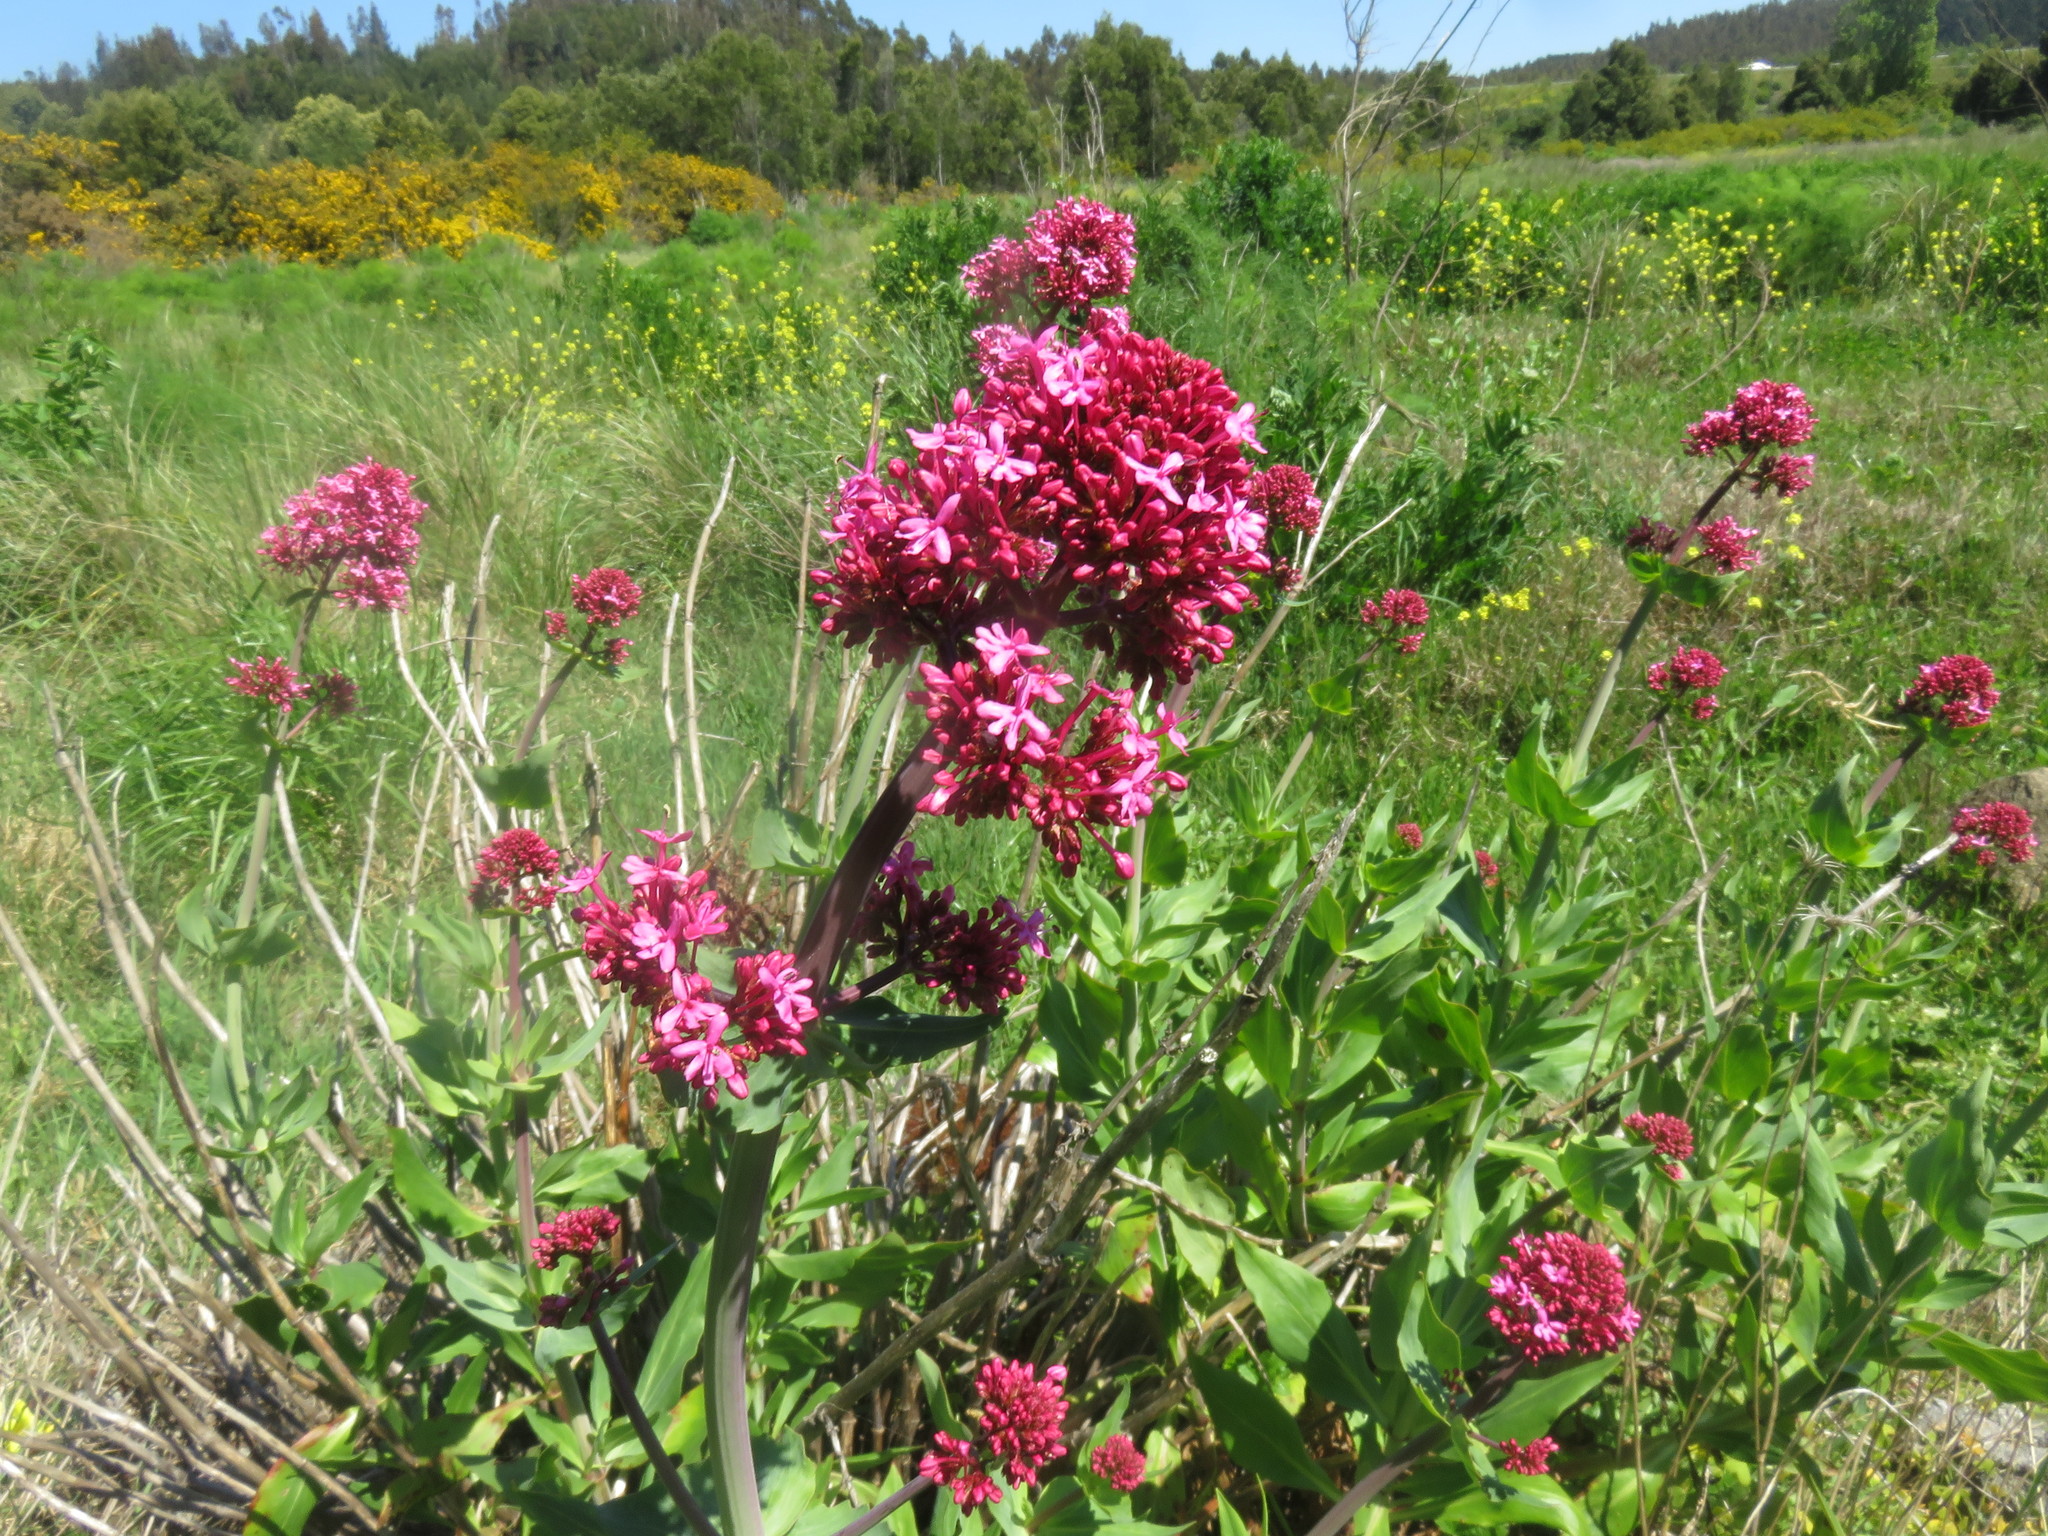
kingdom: Plantae
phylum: Tracheophyta
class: Magnoliopsida
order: Dipsacales
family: Caprifoliaceae
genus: Centranthus
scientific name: Centranthus ruber
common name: Red valerian
